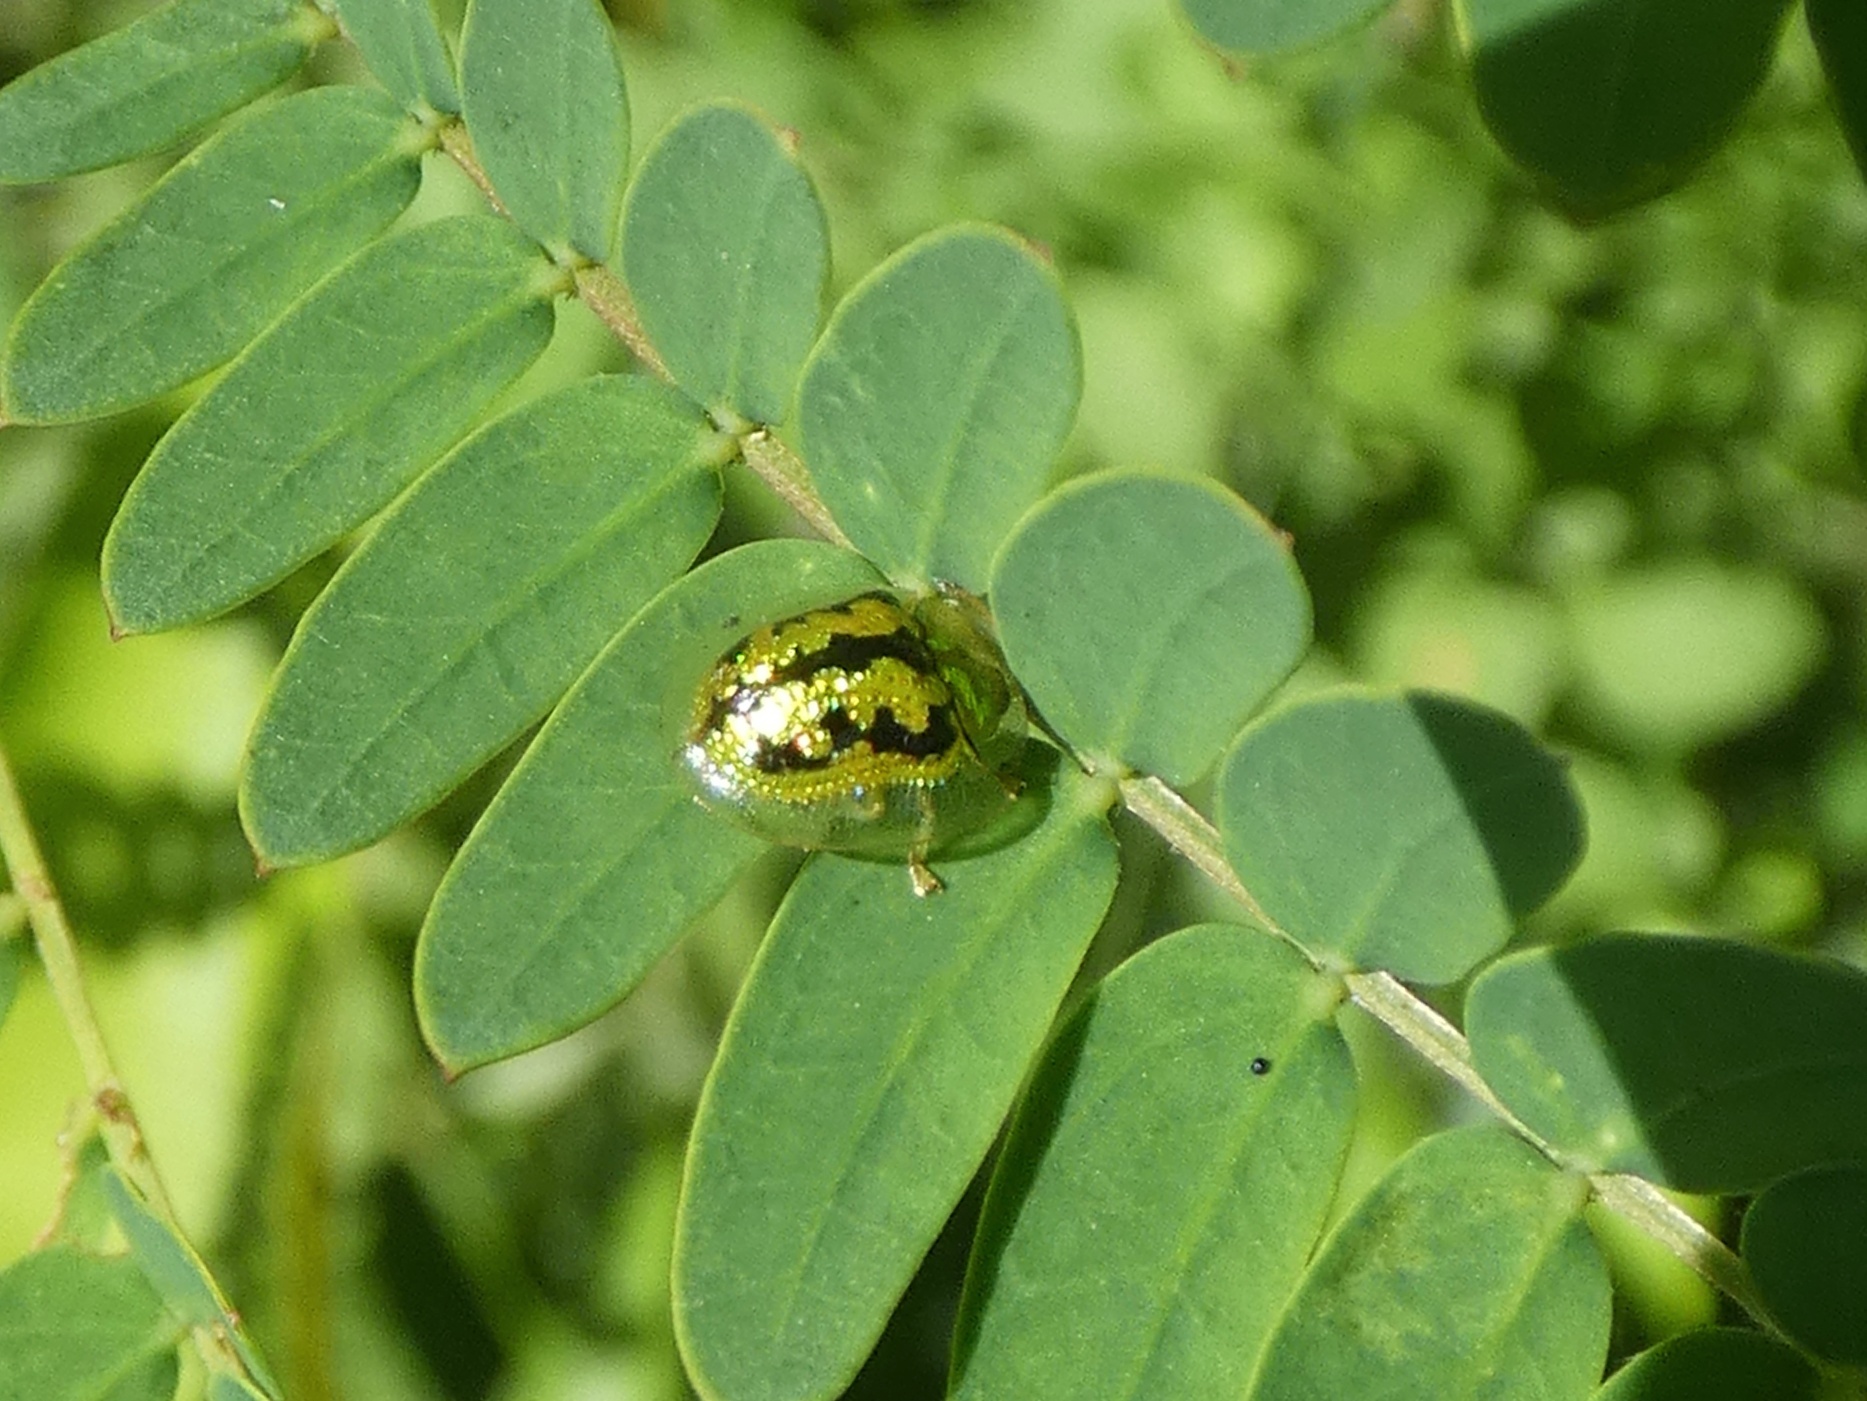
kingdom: Animalia
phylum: Arthropoda
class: Insecta
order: Coleoptera
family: Chrysomelidae
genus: Cassida
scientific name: Cassida circumdata
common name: Tortoise beetle
